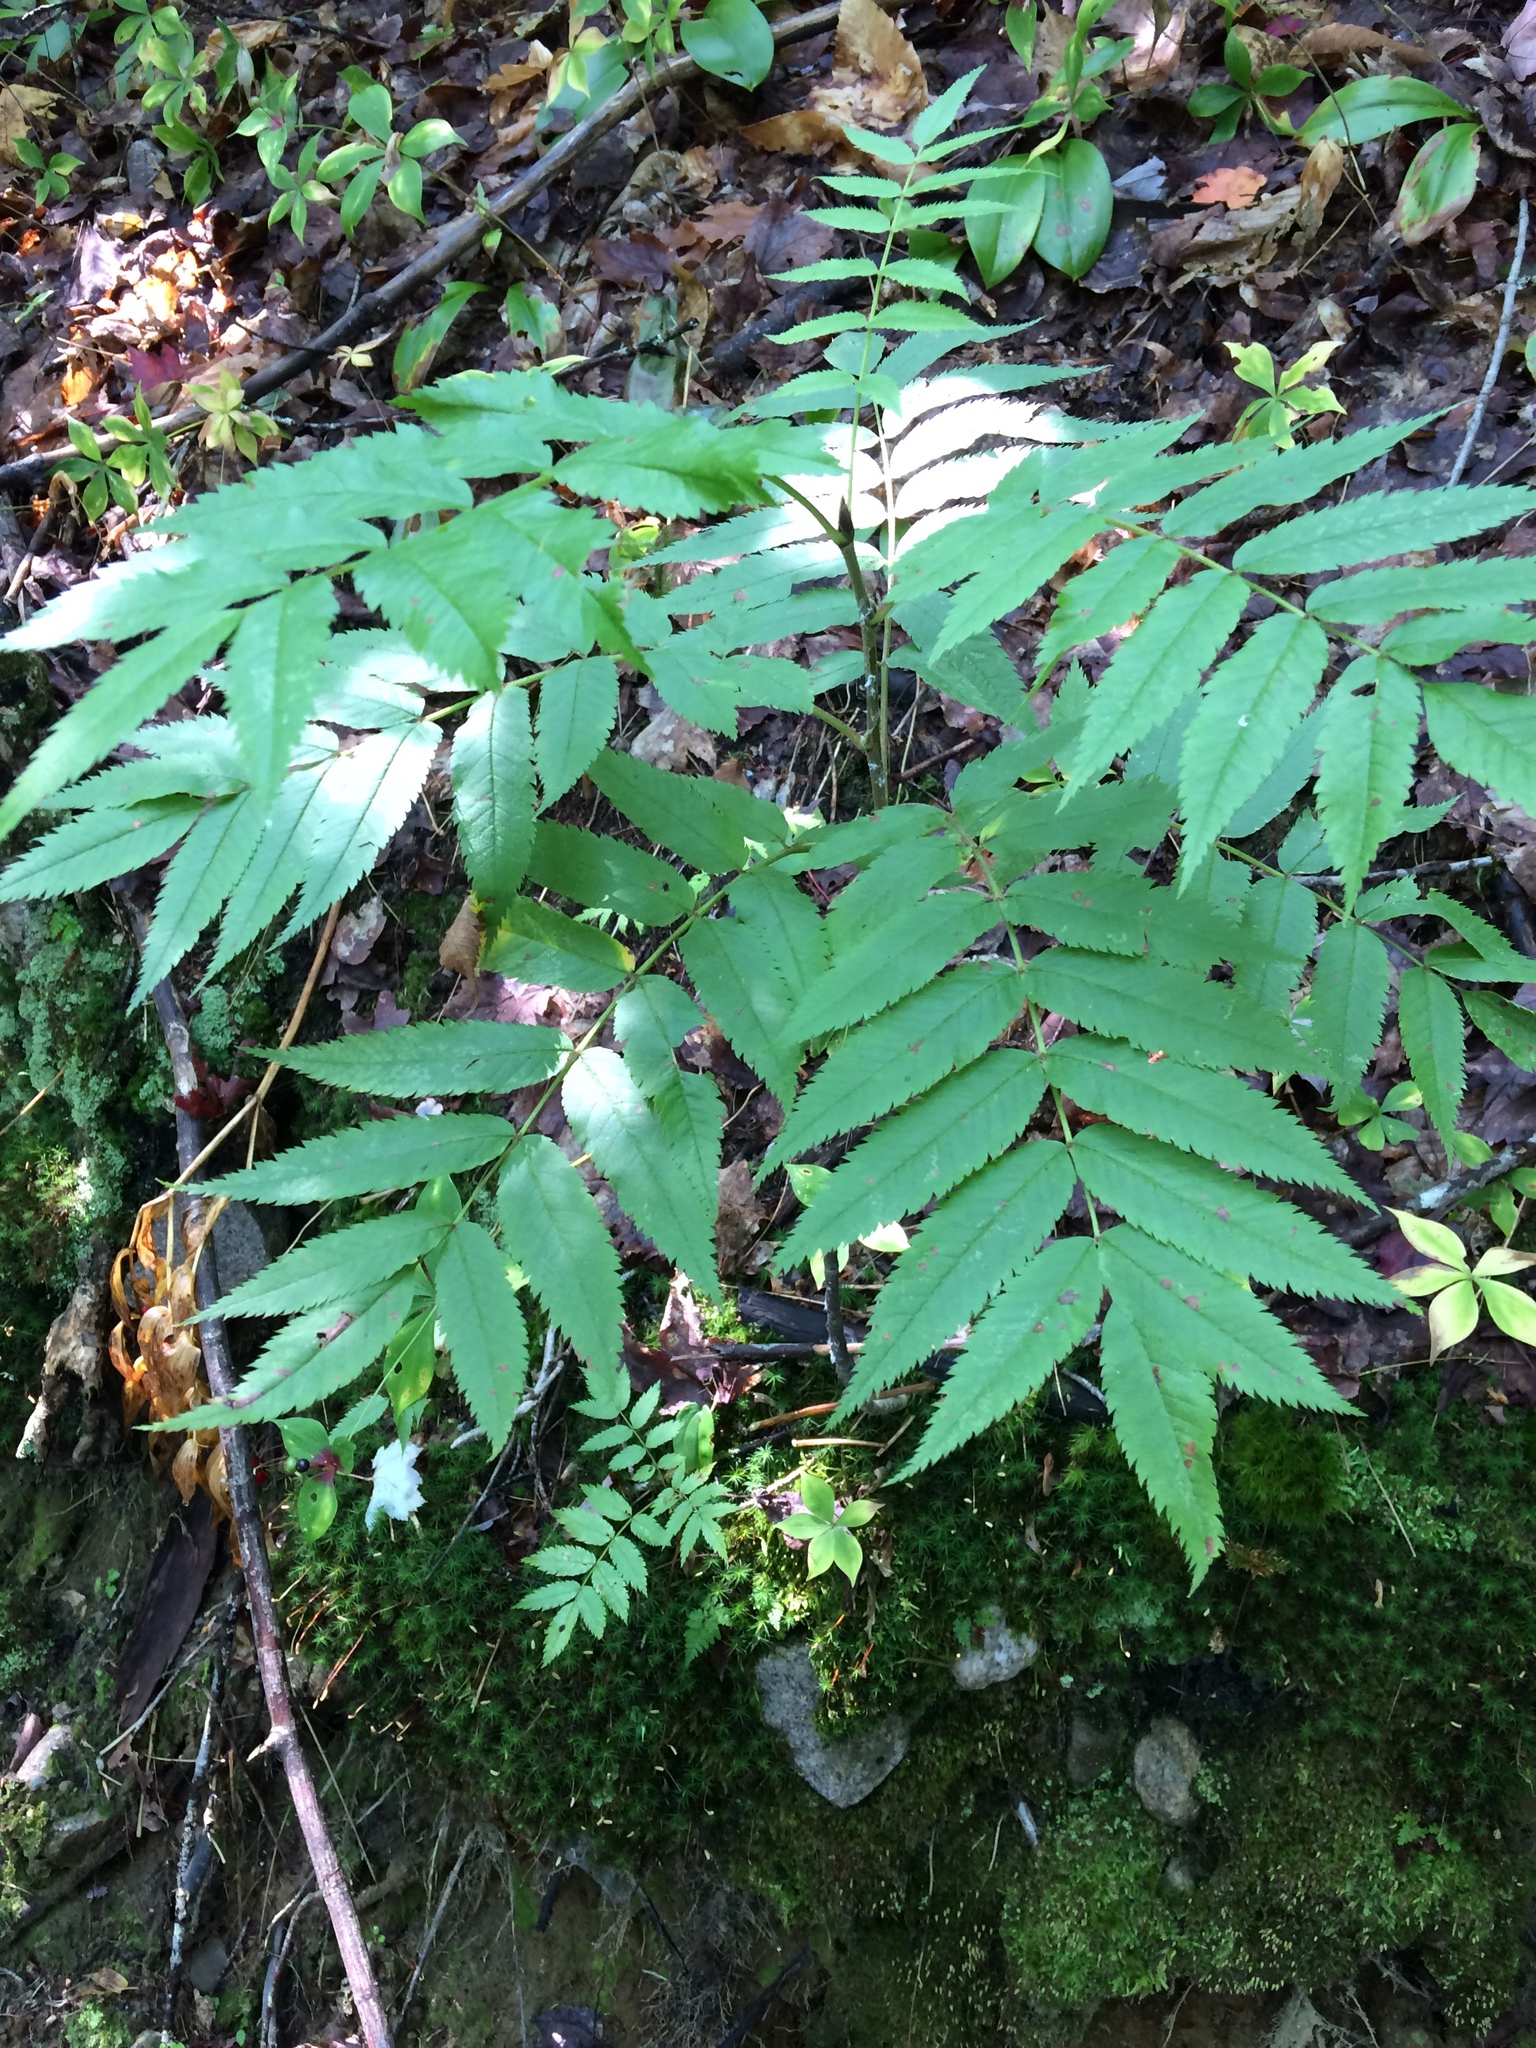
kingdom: Plantae
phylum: Tracheophyta
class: Magnoliopsida
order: Rosales
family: Rosaceae
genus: Sorbus
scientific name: Sorbus americana
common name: American mountain-ash
